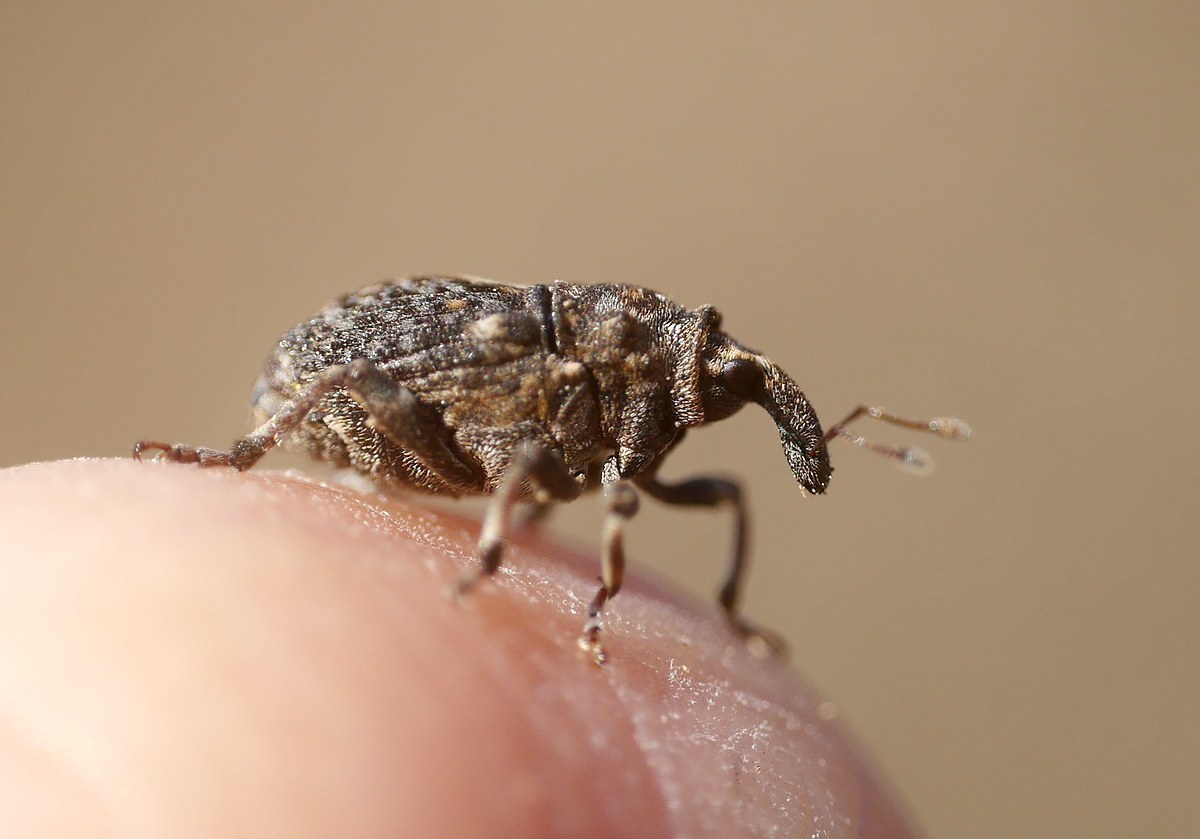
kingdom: Animalia
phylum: Arthropoda
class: Insecta
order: Coleoptera
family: Curculionidae
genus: Phrydiuchus
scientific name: Phrydiuchus tau
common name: Weevil
